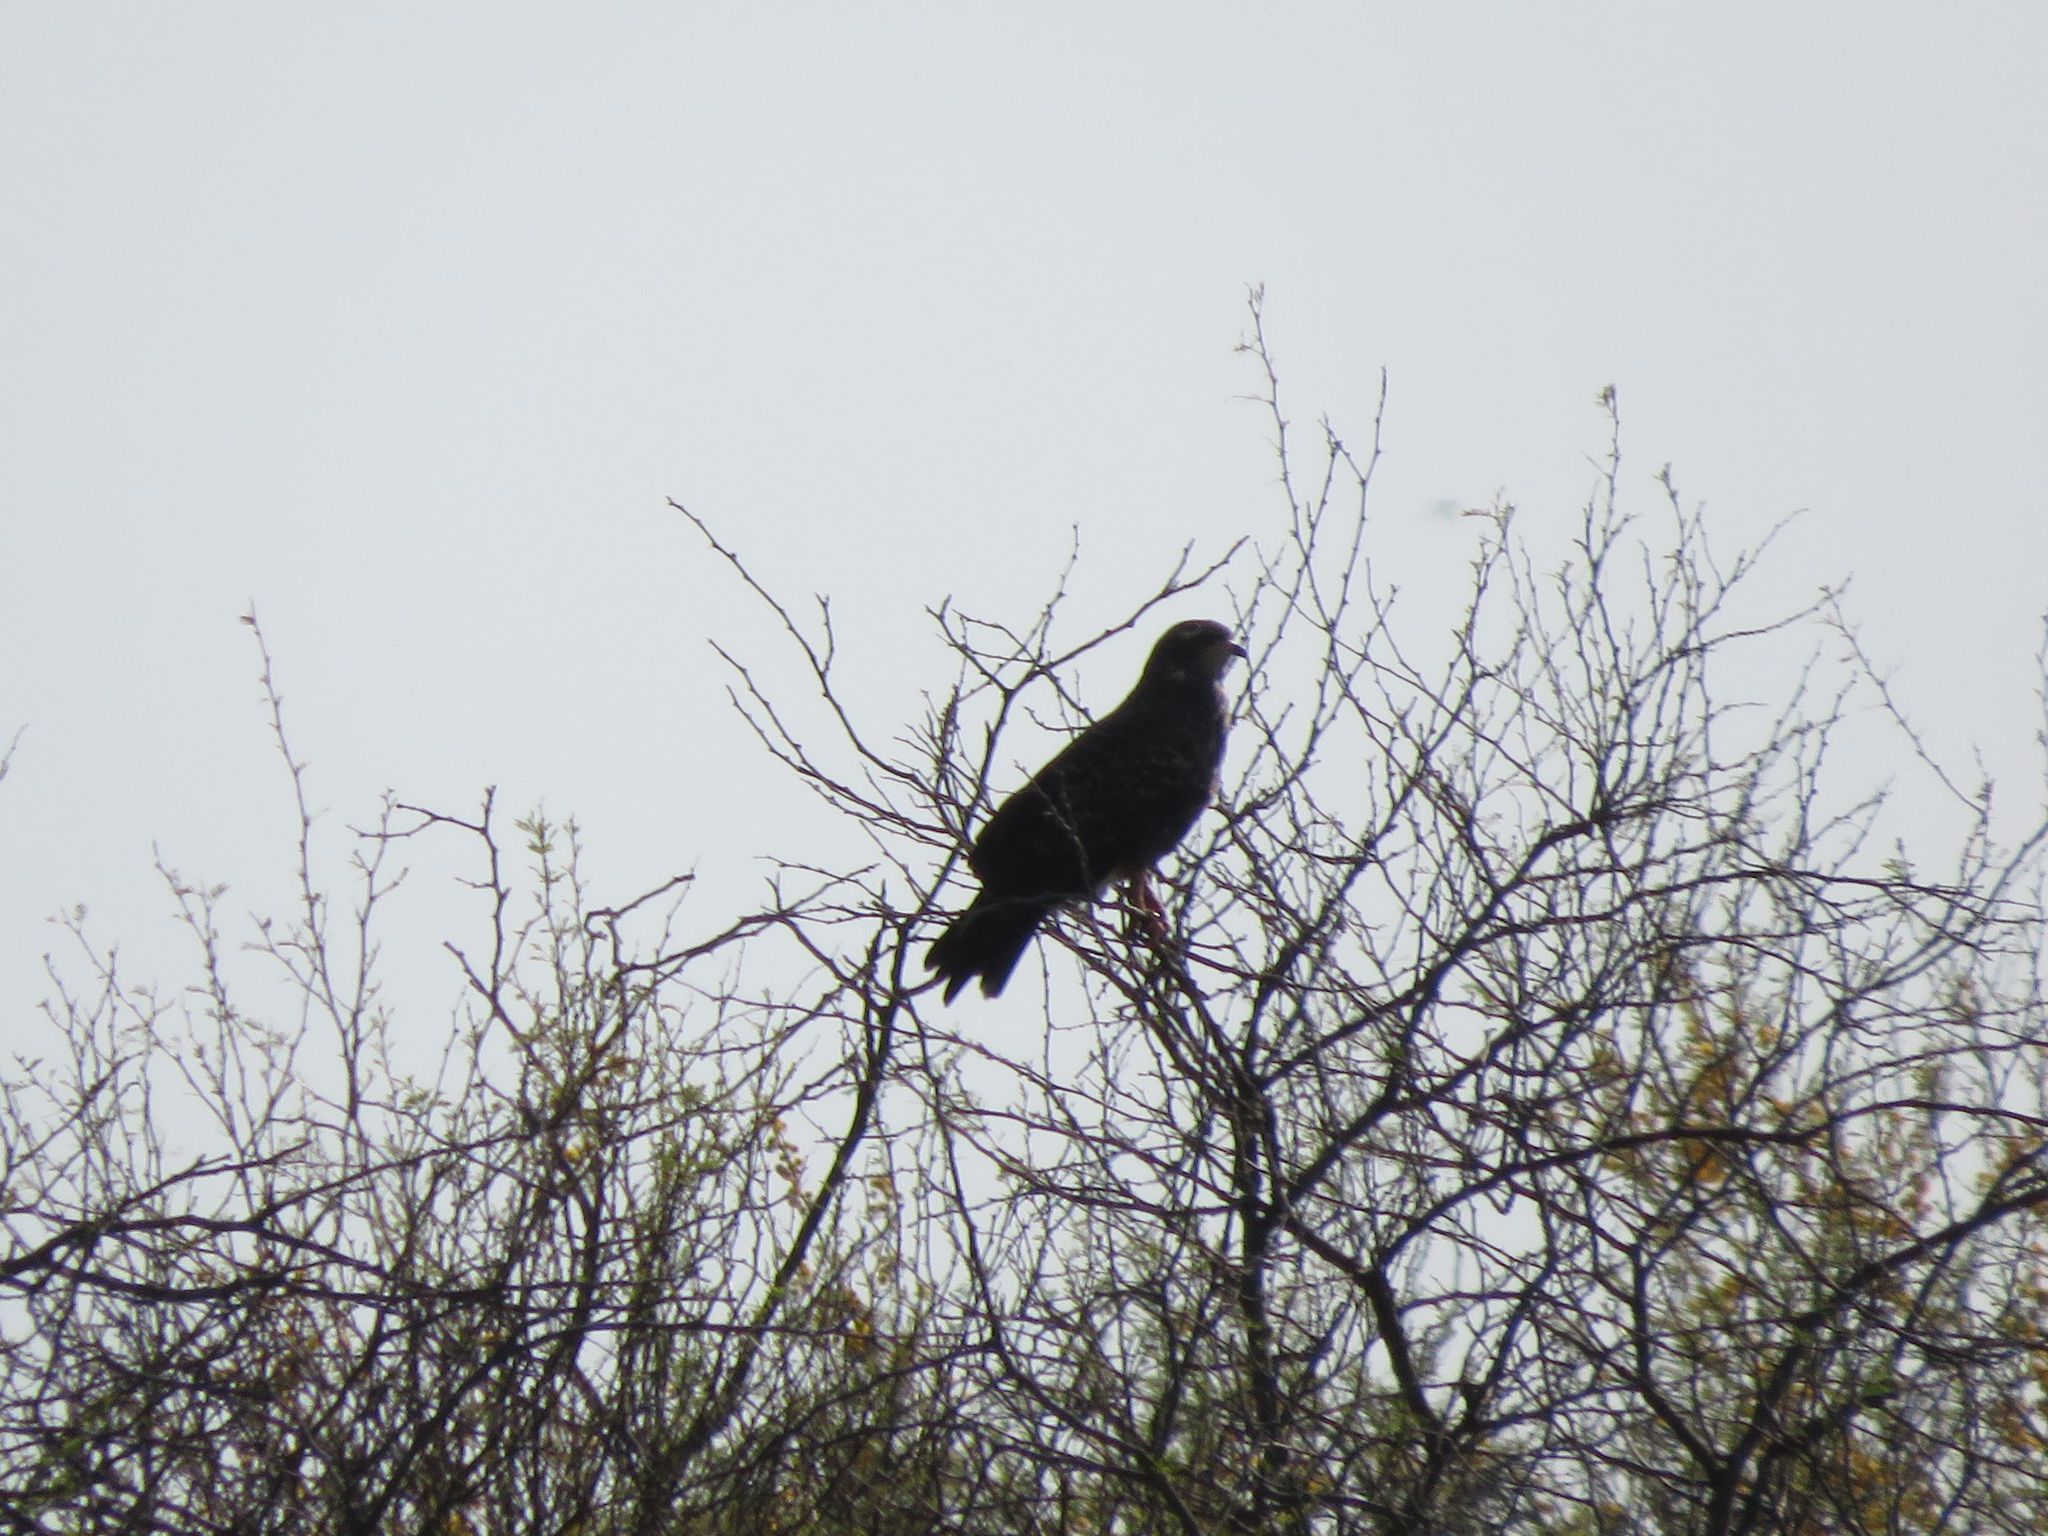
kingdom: Animalia
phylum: Chordata
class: Aves
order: Accipitriformes
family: Accipitridae
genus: Rostrhamus
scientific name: Rostrhamus sociabilis
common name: Snail kite
